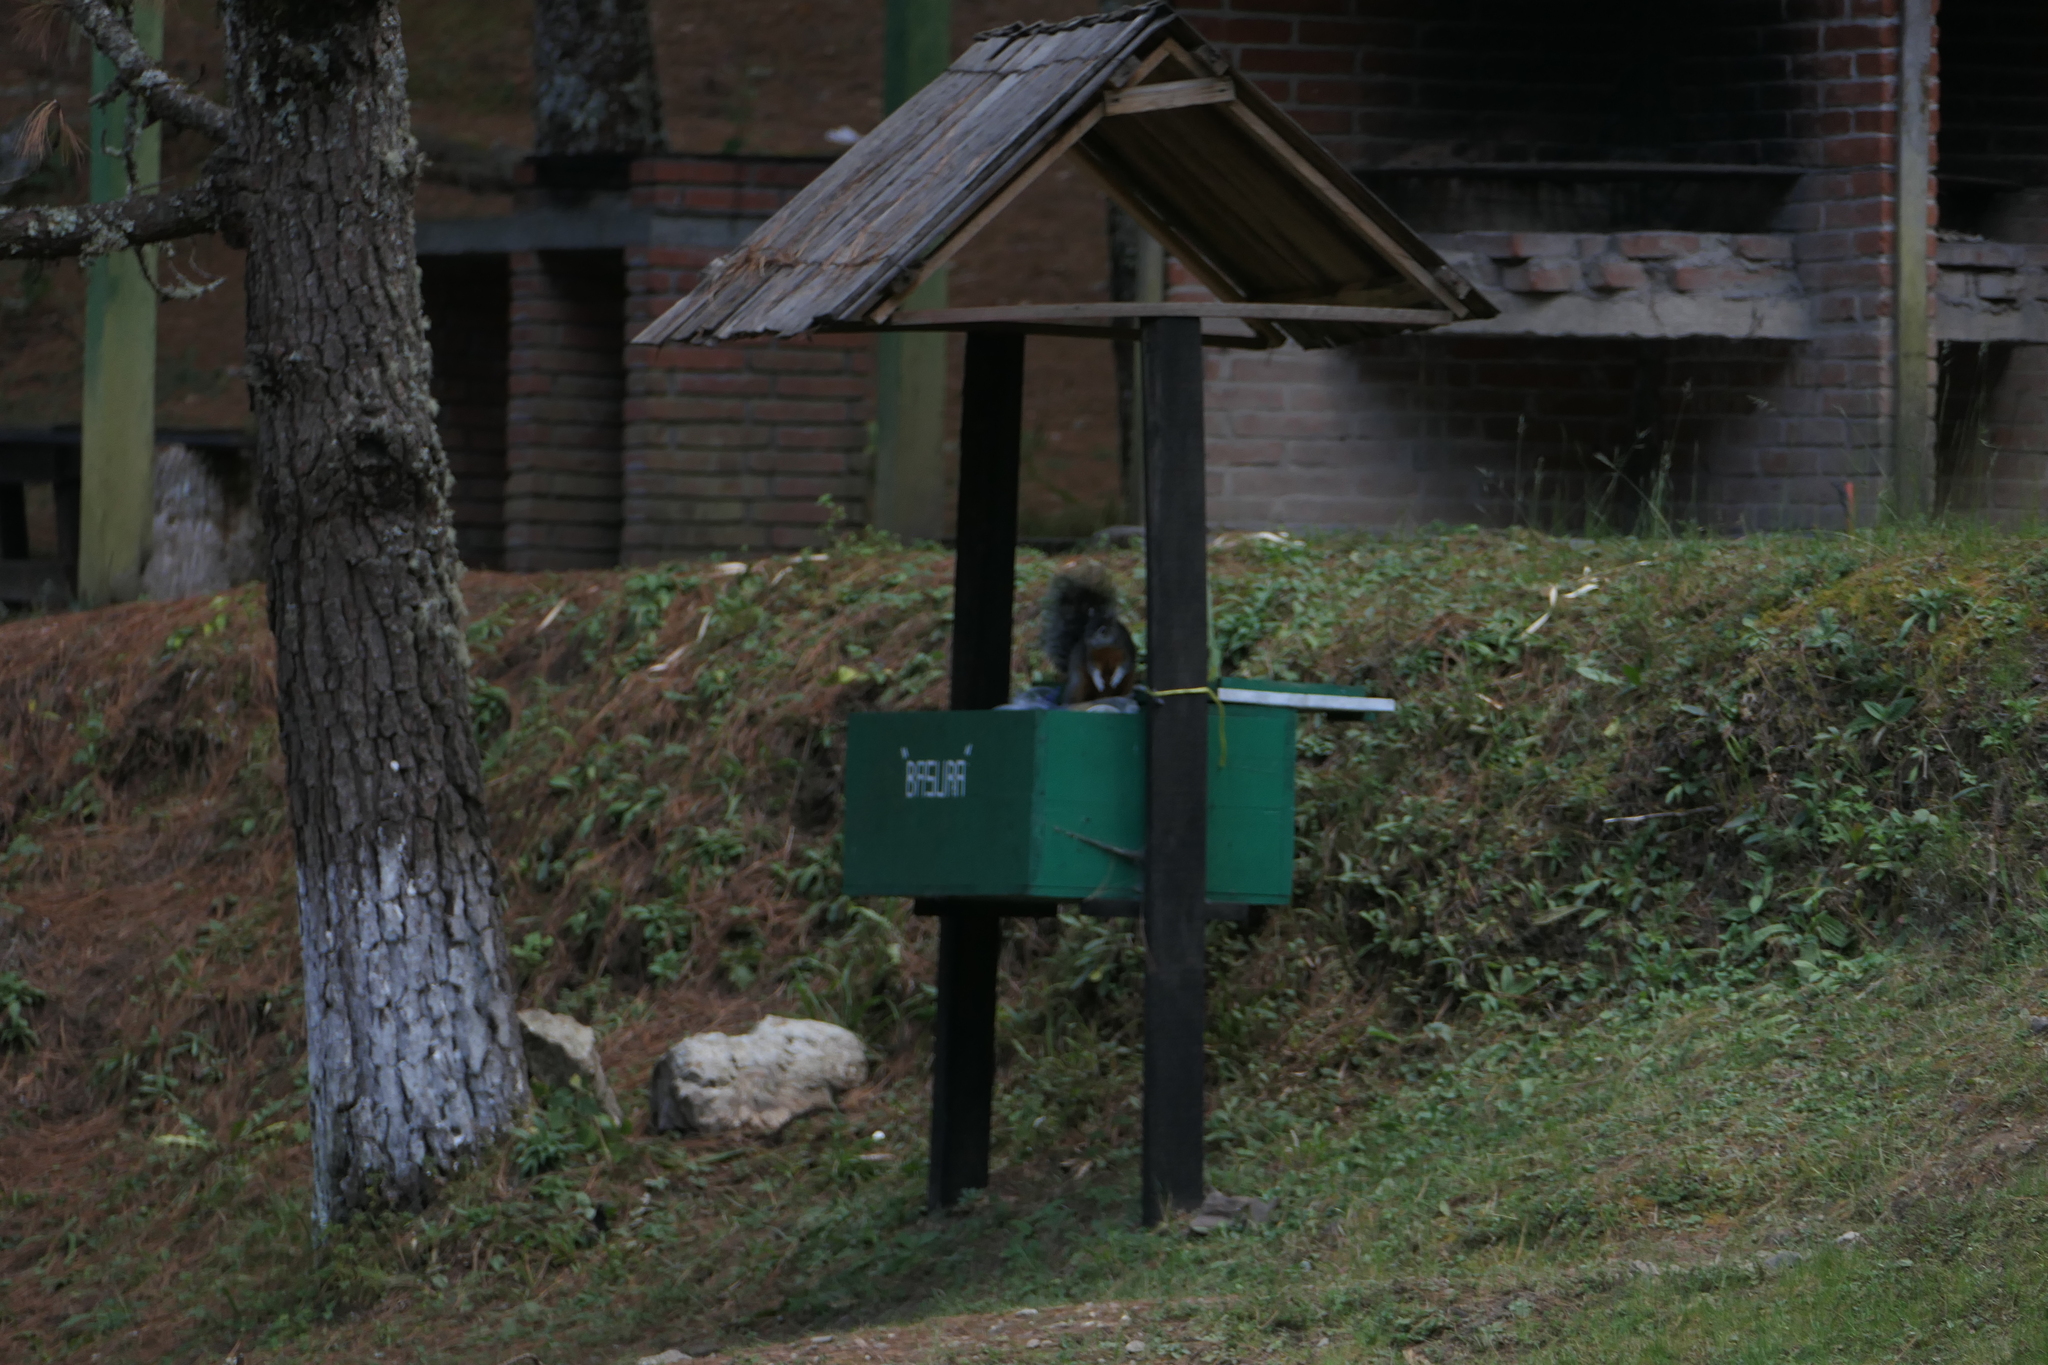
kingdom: Animalia
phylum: Chordata
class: Mammalia
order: Rodentia
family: Sciuridae
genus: Sciurus
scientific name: Sciurus aureogaster
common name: Red-bellied squirrel
